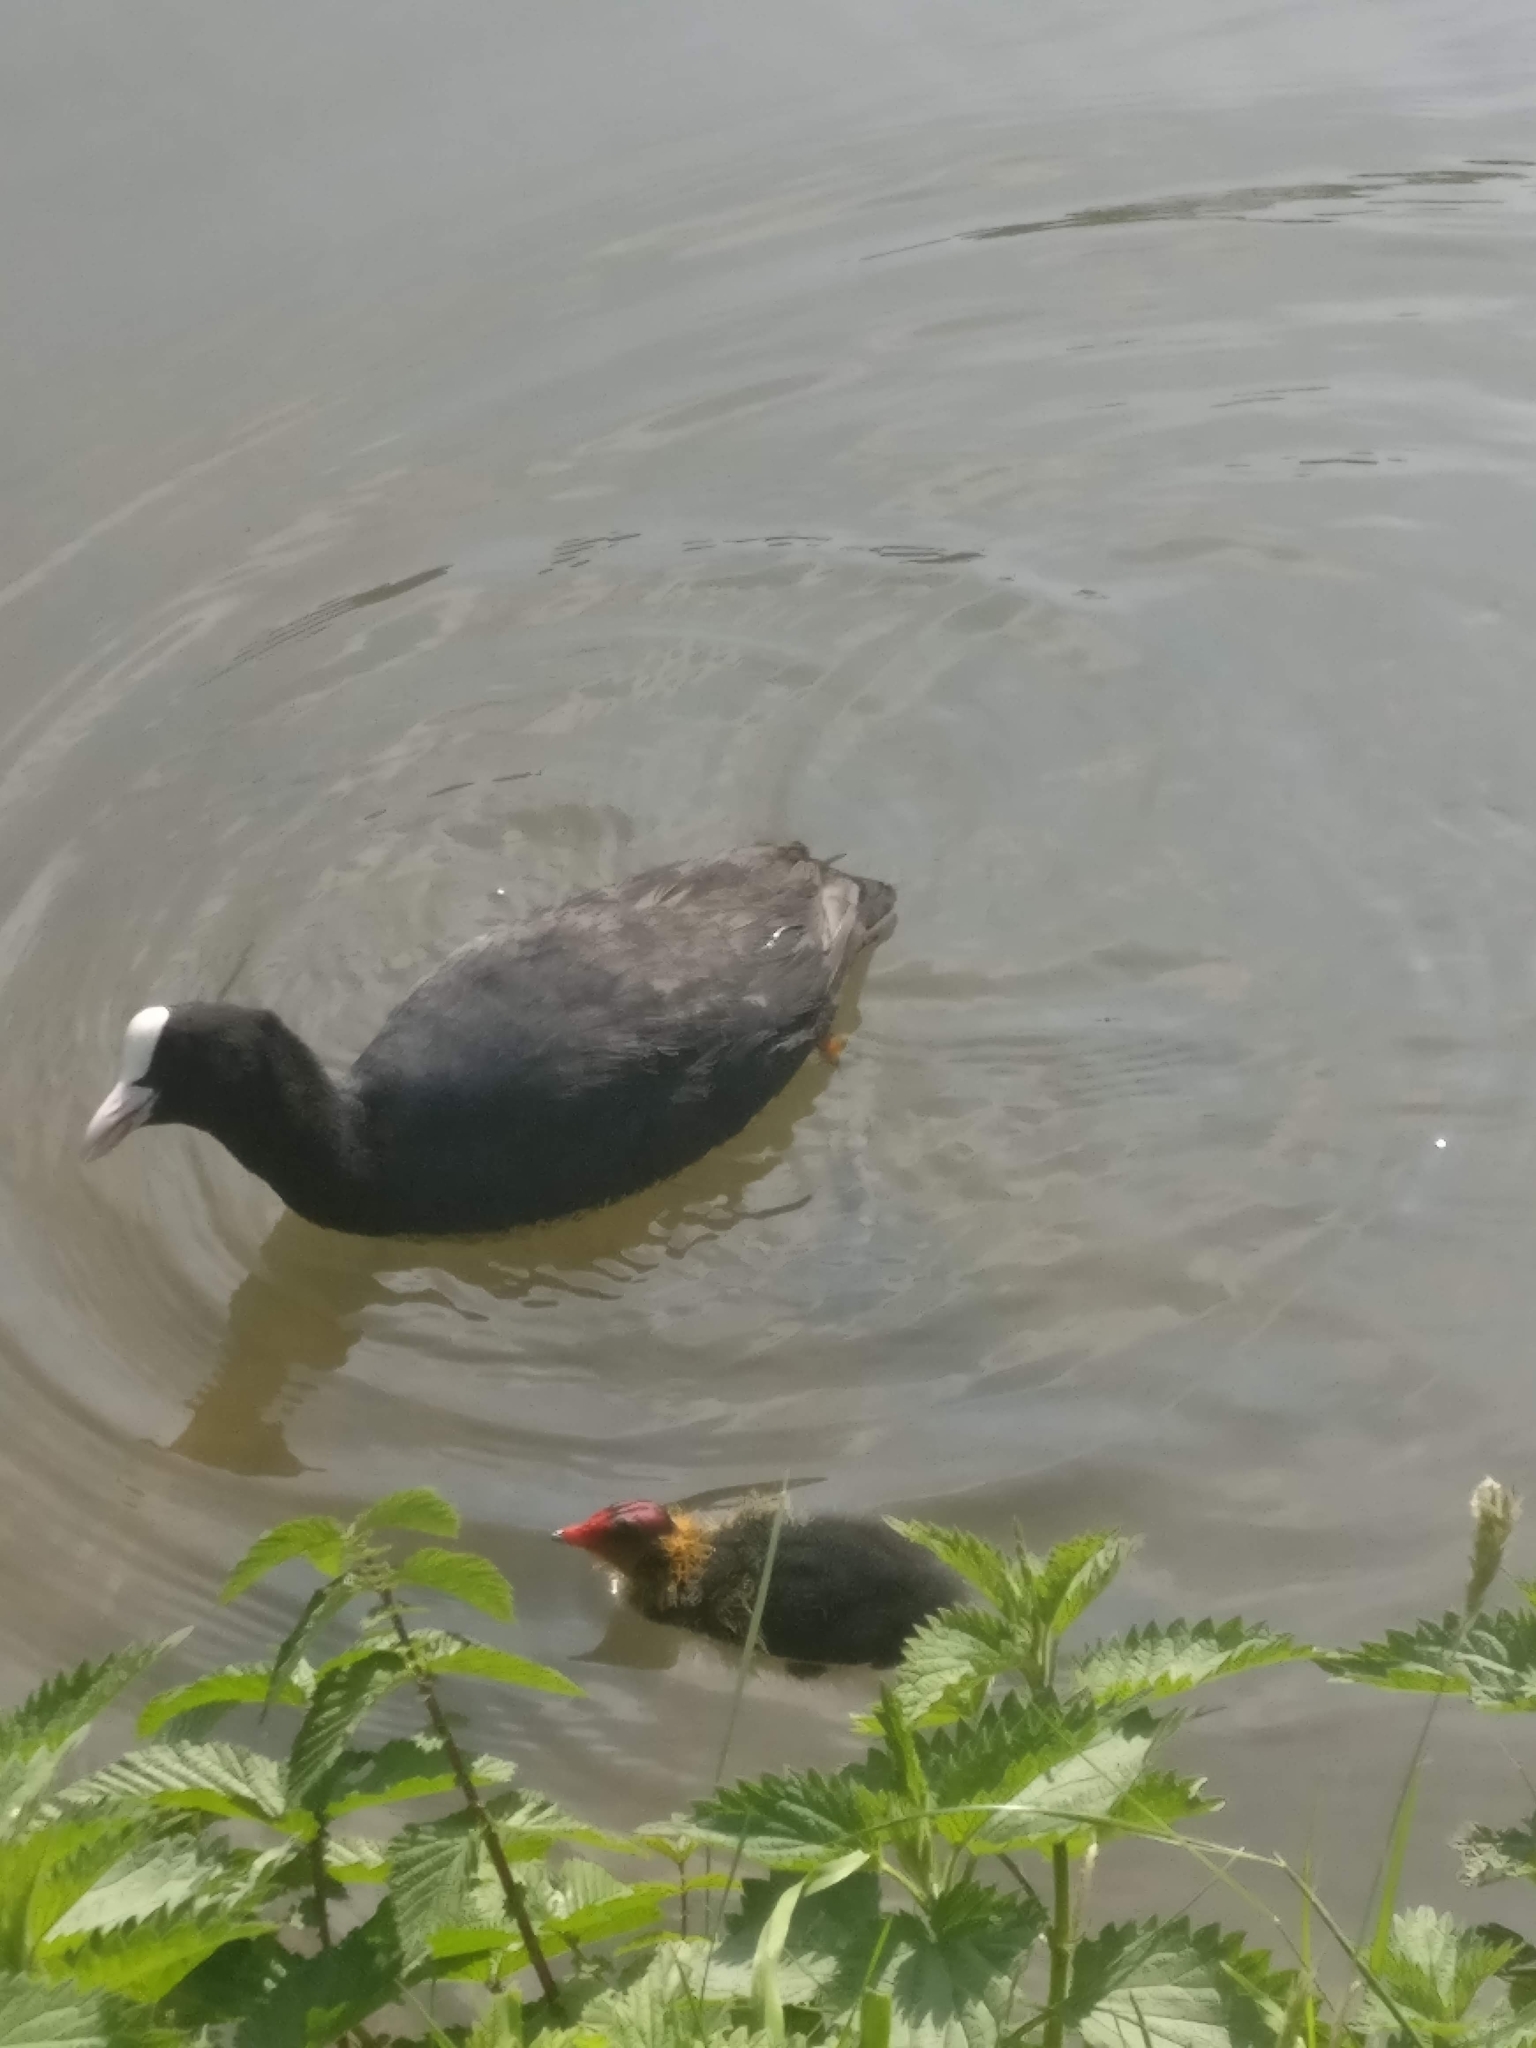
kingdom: Animalia
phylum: Chordata
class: Aves
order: Gruiformes
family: Rallidae
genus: Fulica
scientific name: Fulica atra
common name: Eurasian coot
